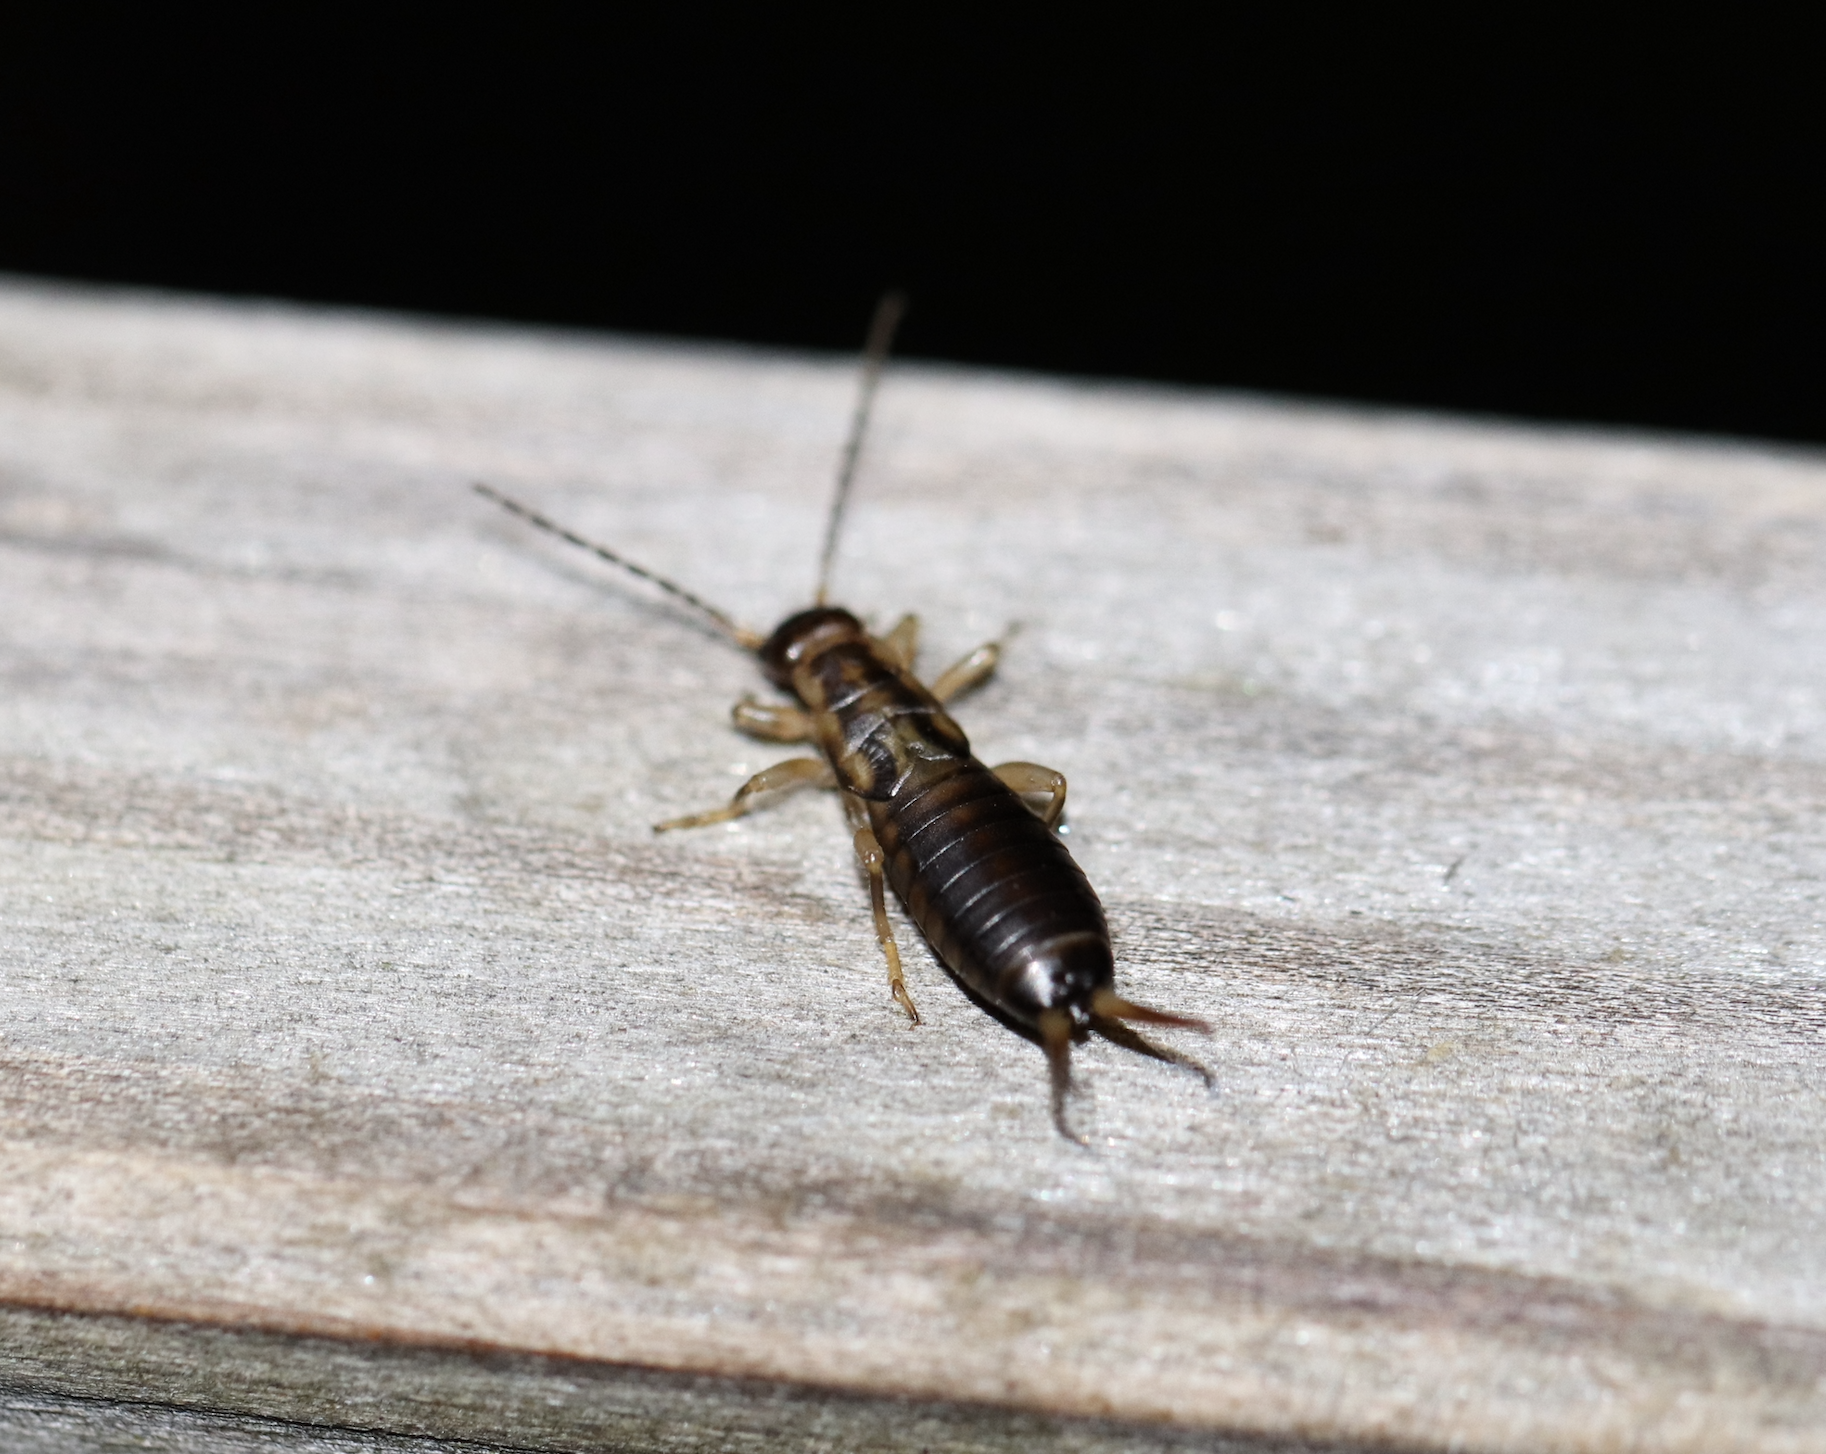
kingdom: Animalia
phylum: Arthropoda
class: Insecta
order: Dermaptera
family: Forficulidae
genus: Forficula
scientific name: Forficula
